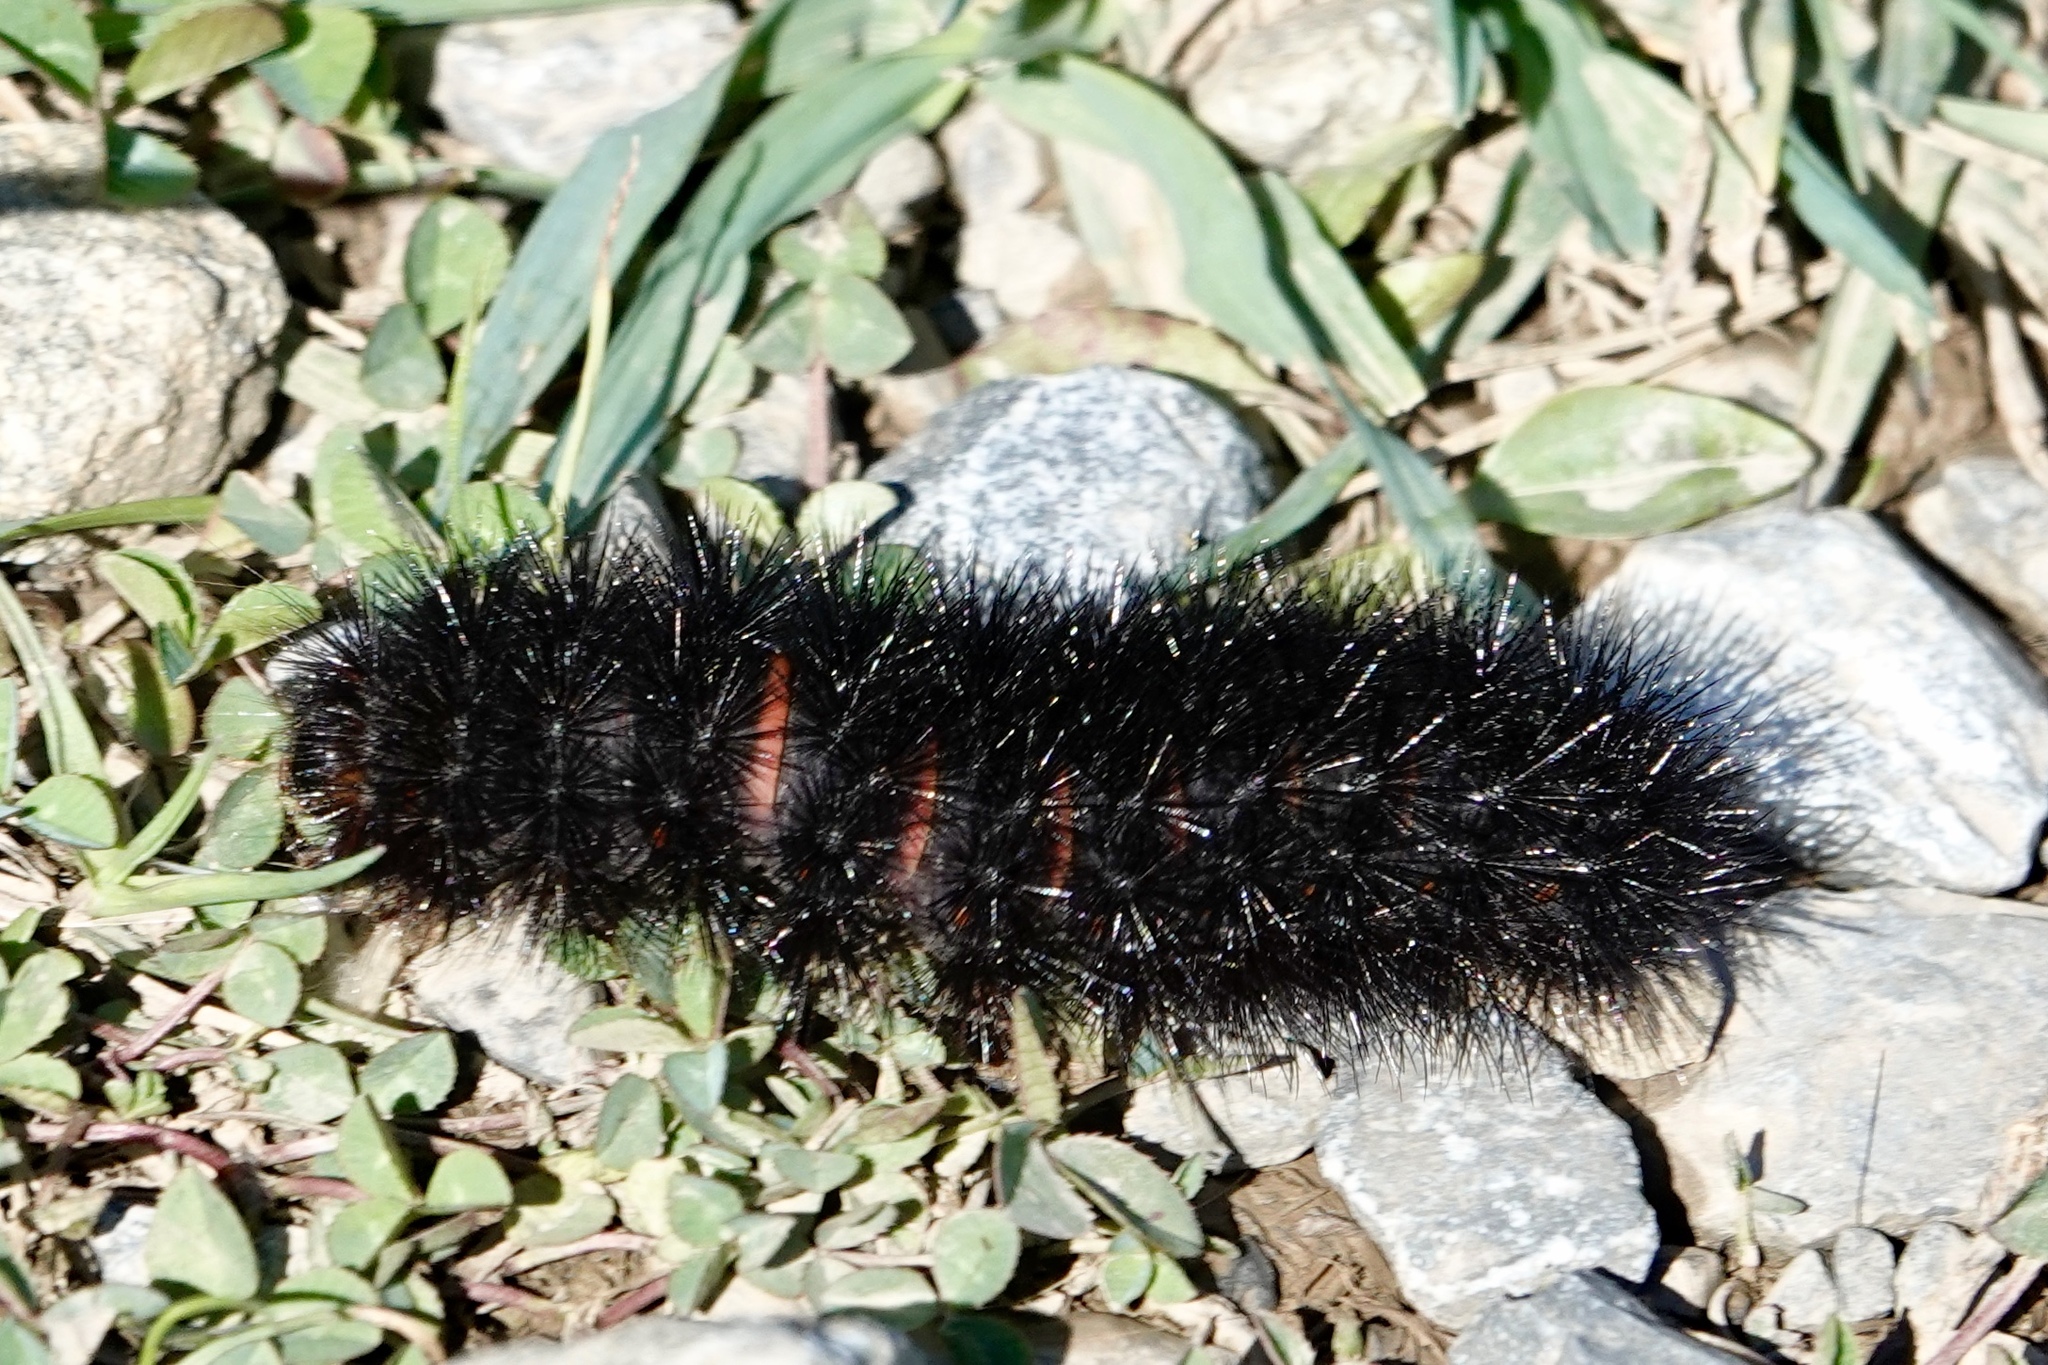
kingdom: Animalia
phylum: Arthropoda
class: Insecta
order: Lepidoptera
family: Erebidae
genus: Hypercompe
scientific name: Hypercompe scribonia
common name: Giant leopard moth
